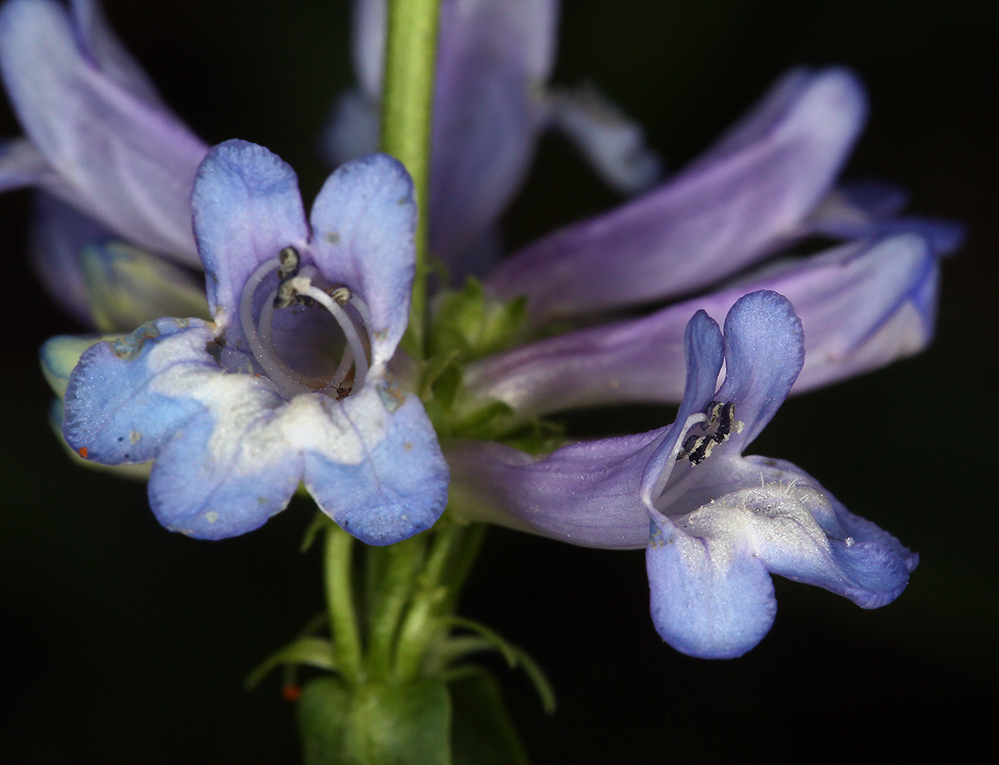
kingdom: Plantae
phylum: Tracheophyta
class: Magnoliopsida
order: Lamiales
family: Plantaginaceae
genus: Penstemon
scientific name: Penstemon procerus
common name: Small-flower penstemon
